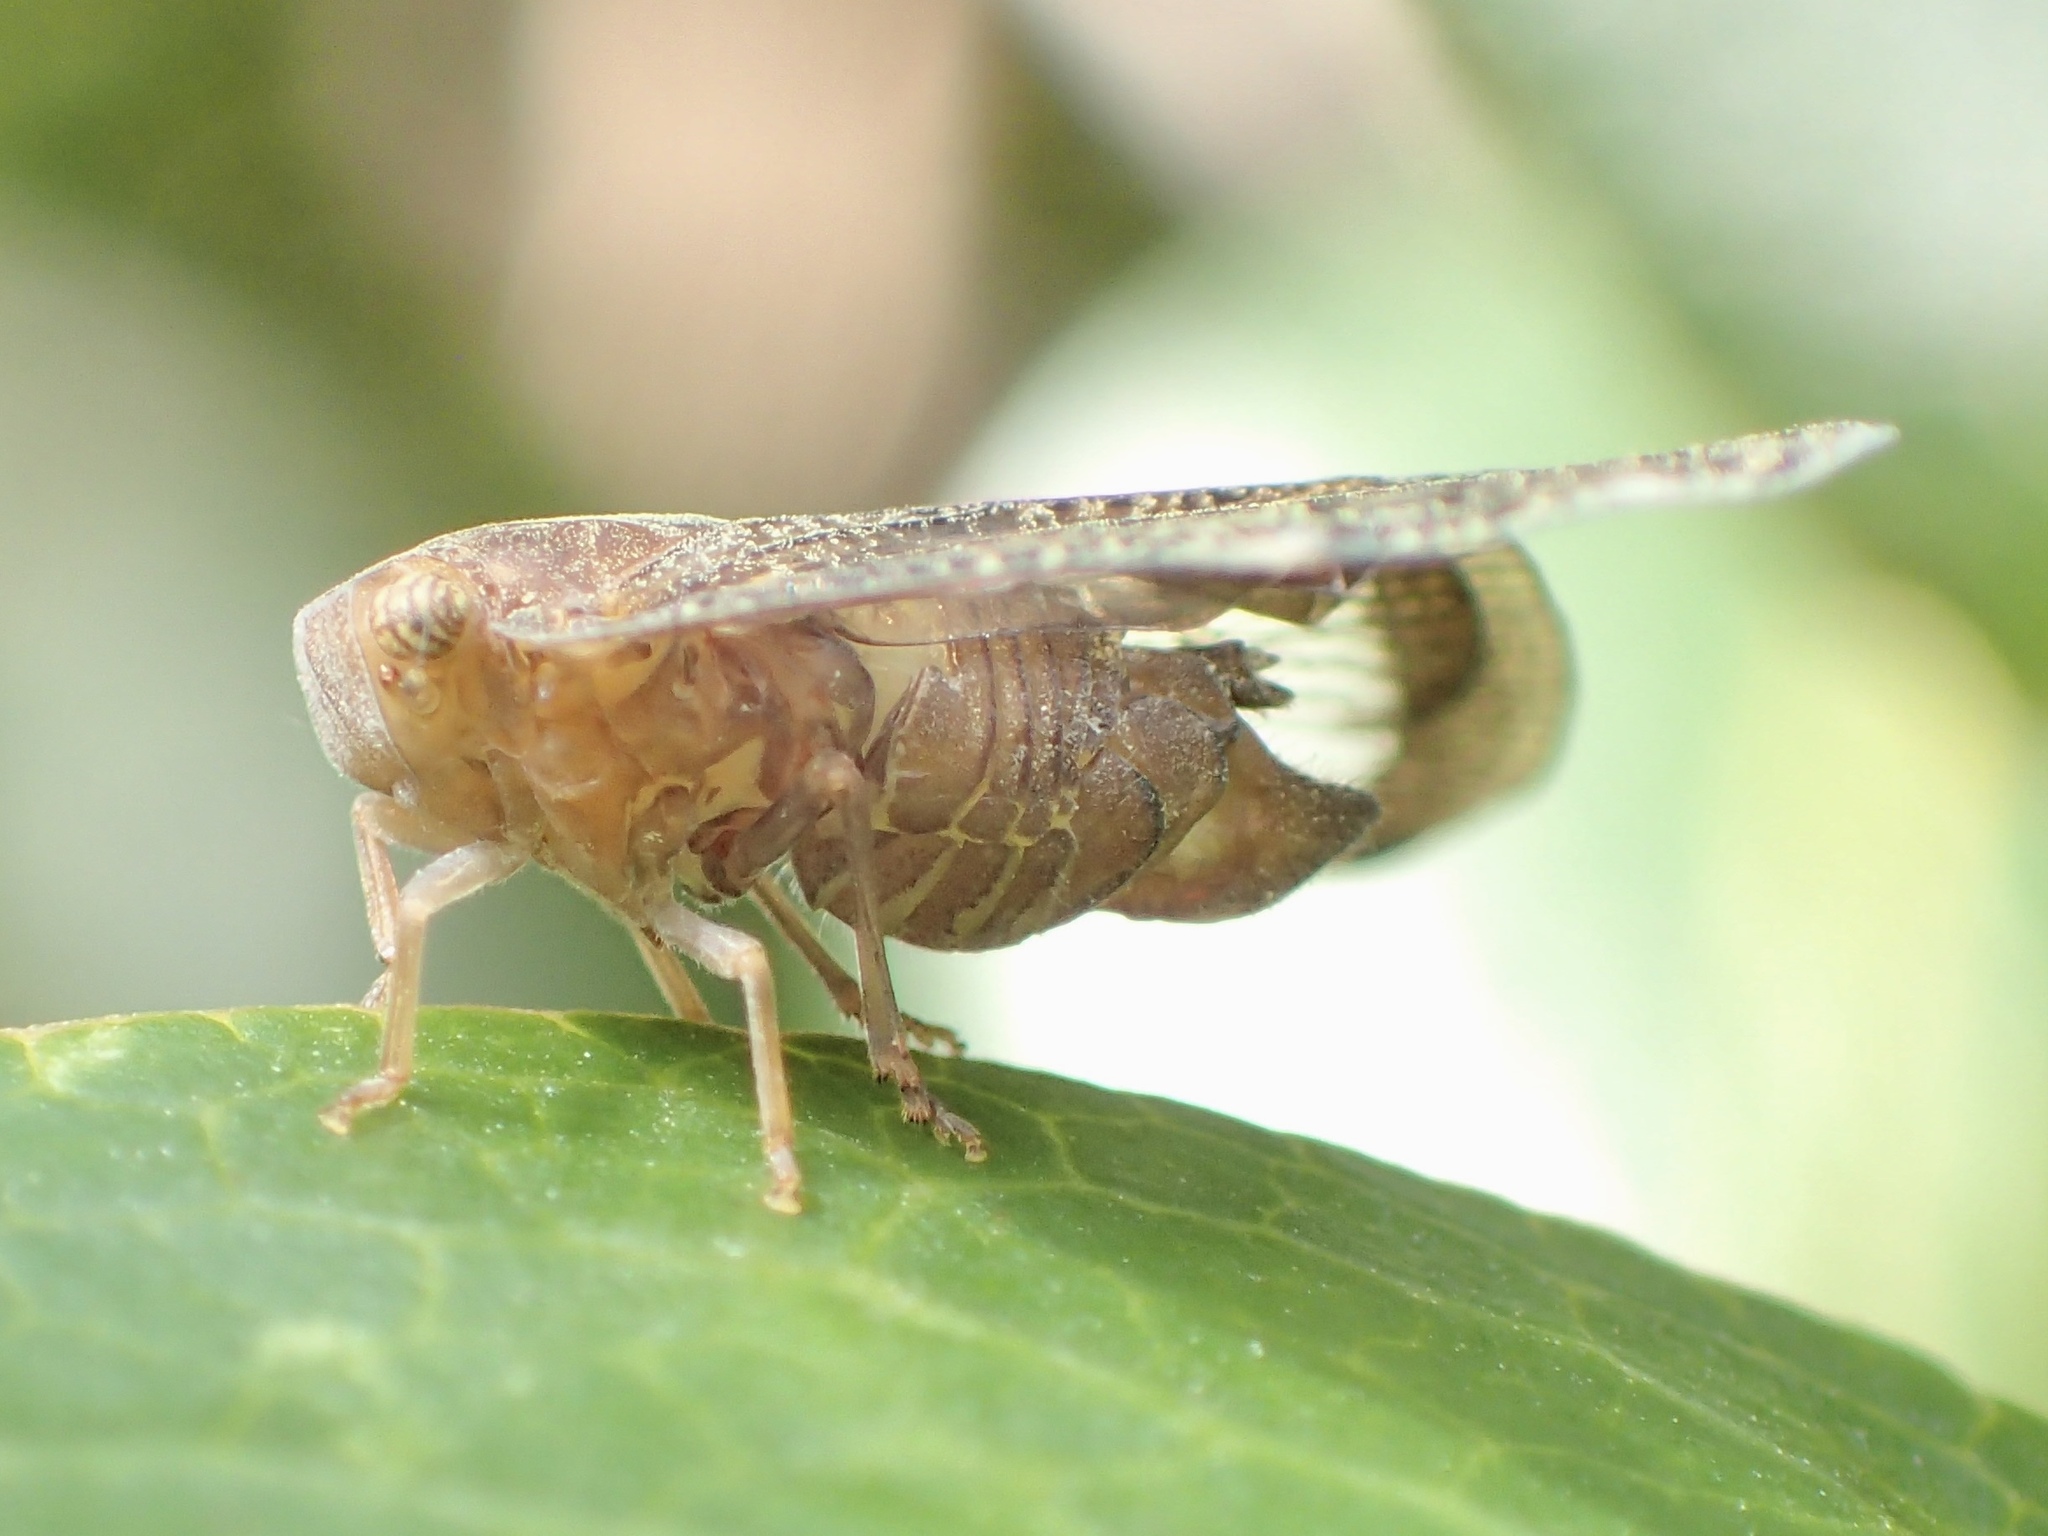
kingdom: Animalia
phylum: Arthropoda
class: Insecta
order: Hemiptera
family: Ricaniidae
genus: Scolypopa
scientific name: Scolypopa australis
